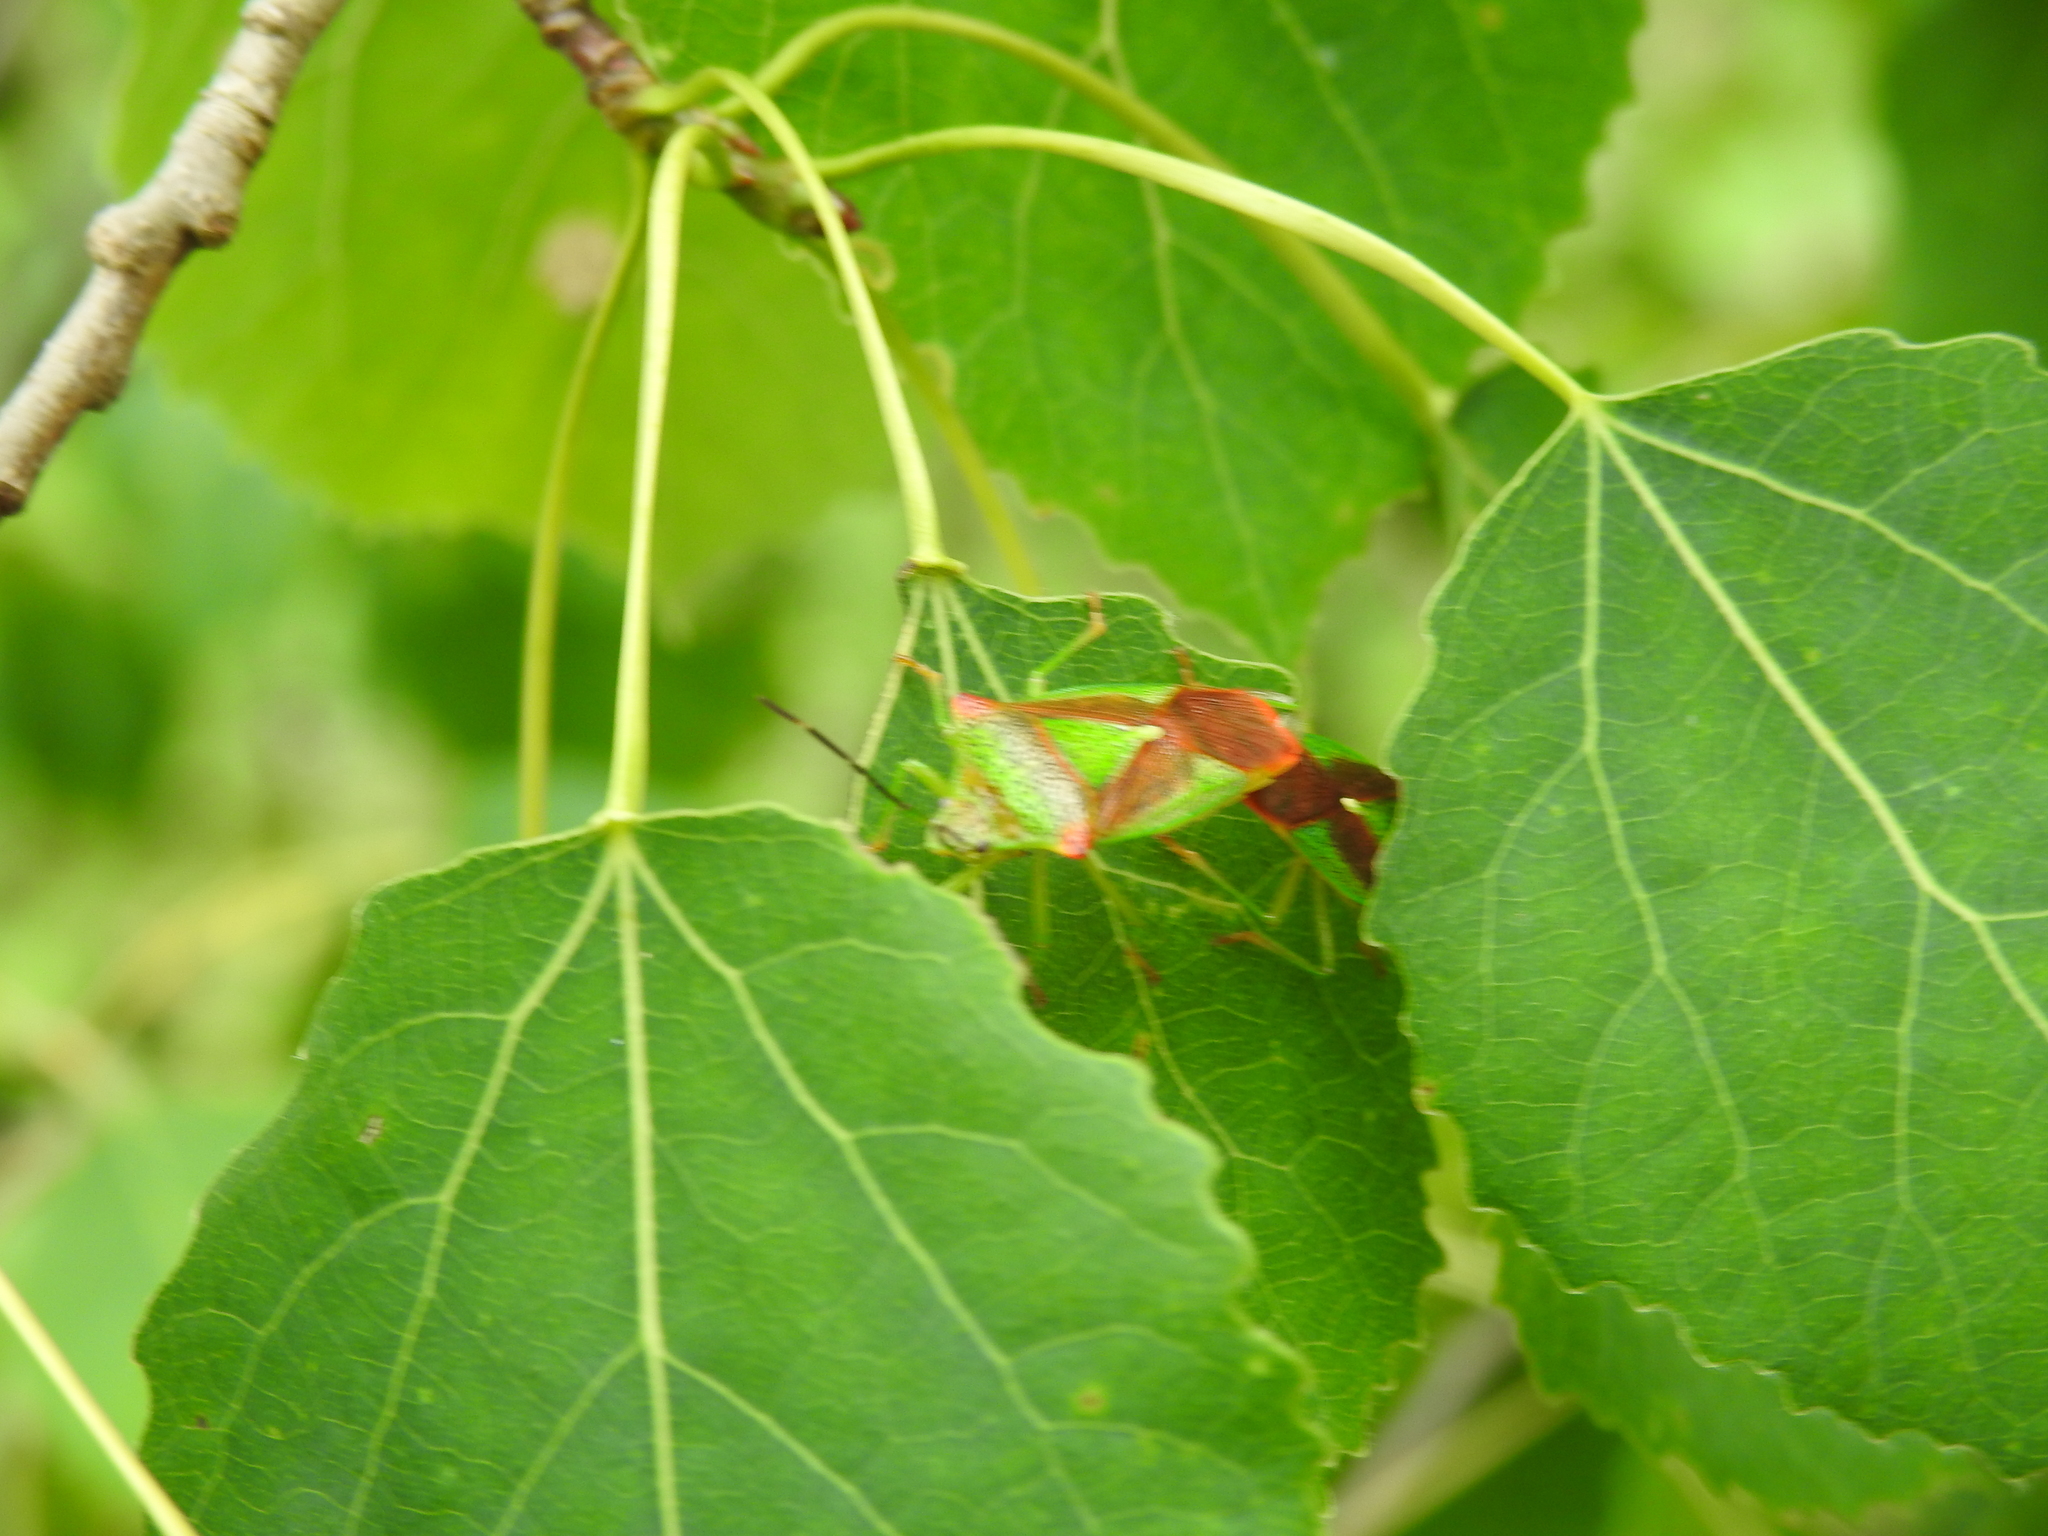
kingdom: Animalia
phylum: Arthropoda
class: Insecta
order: Hemiptera
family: Acanthosomatidae
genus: Acanthosoma
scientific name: Acanthosoma haemorrhoidale
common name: Hawthorn shieldbug
